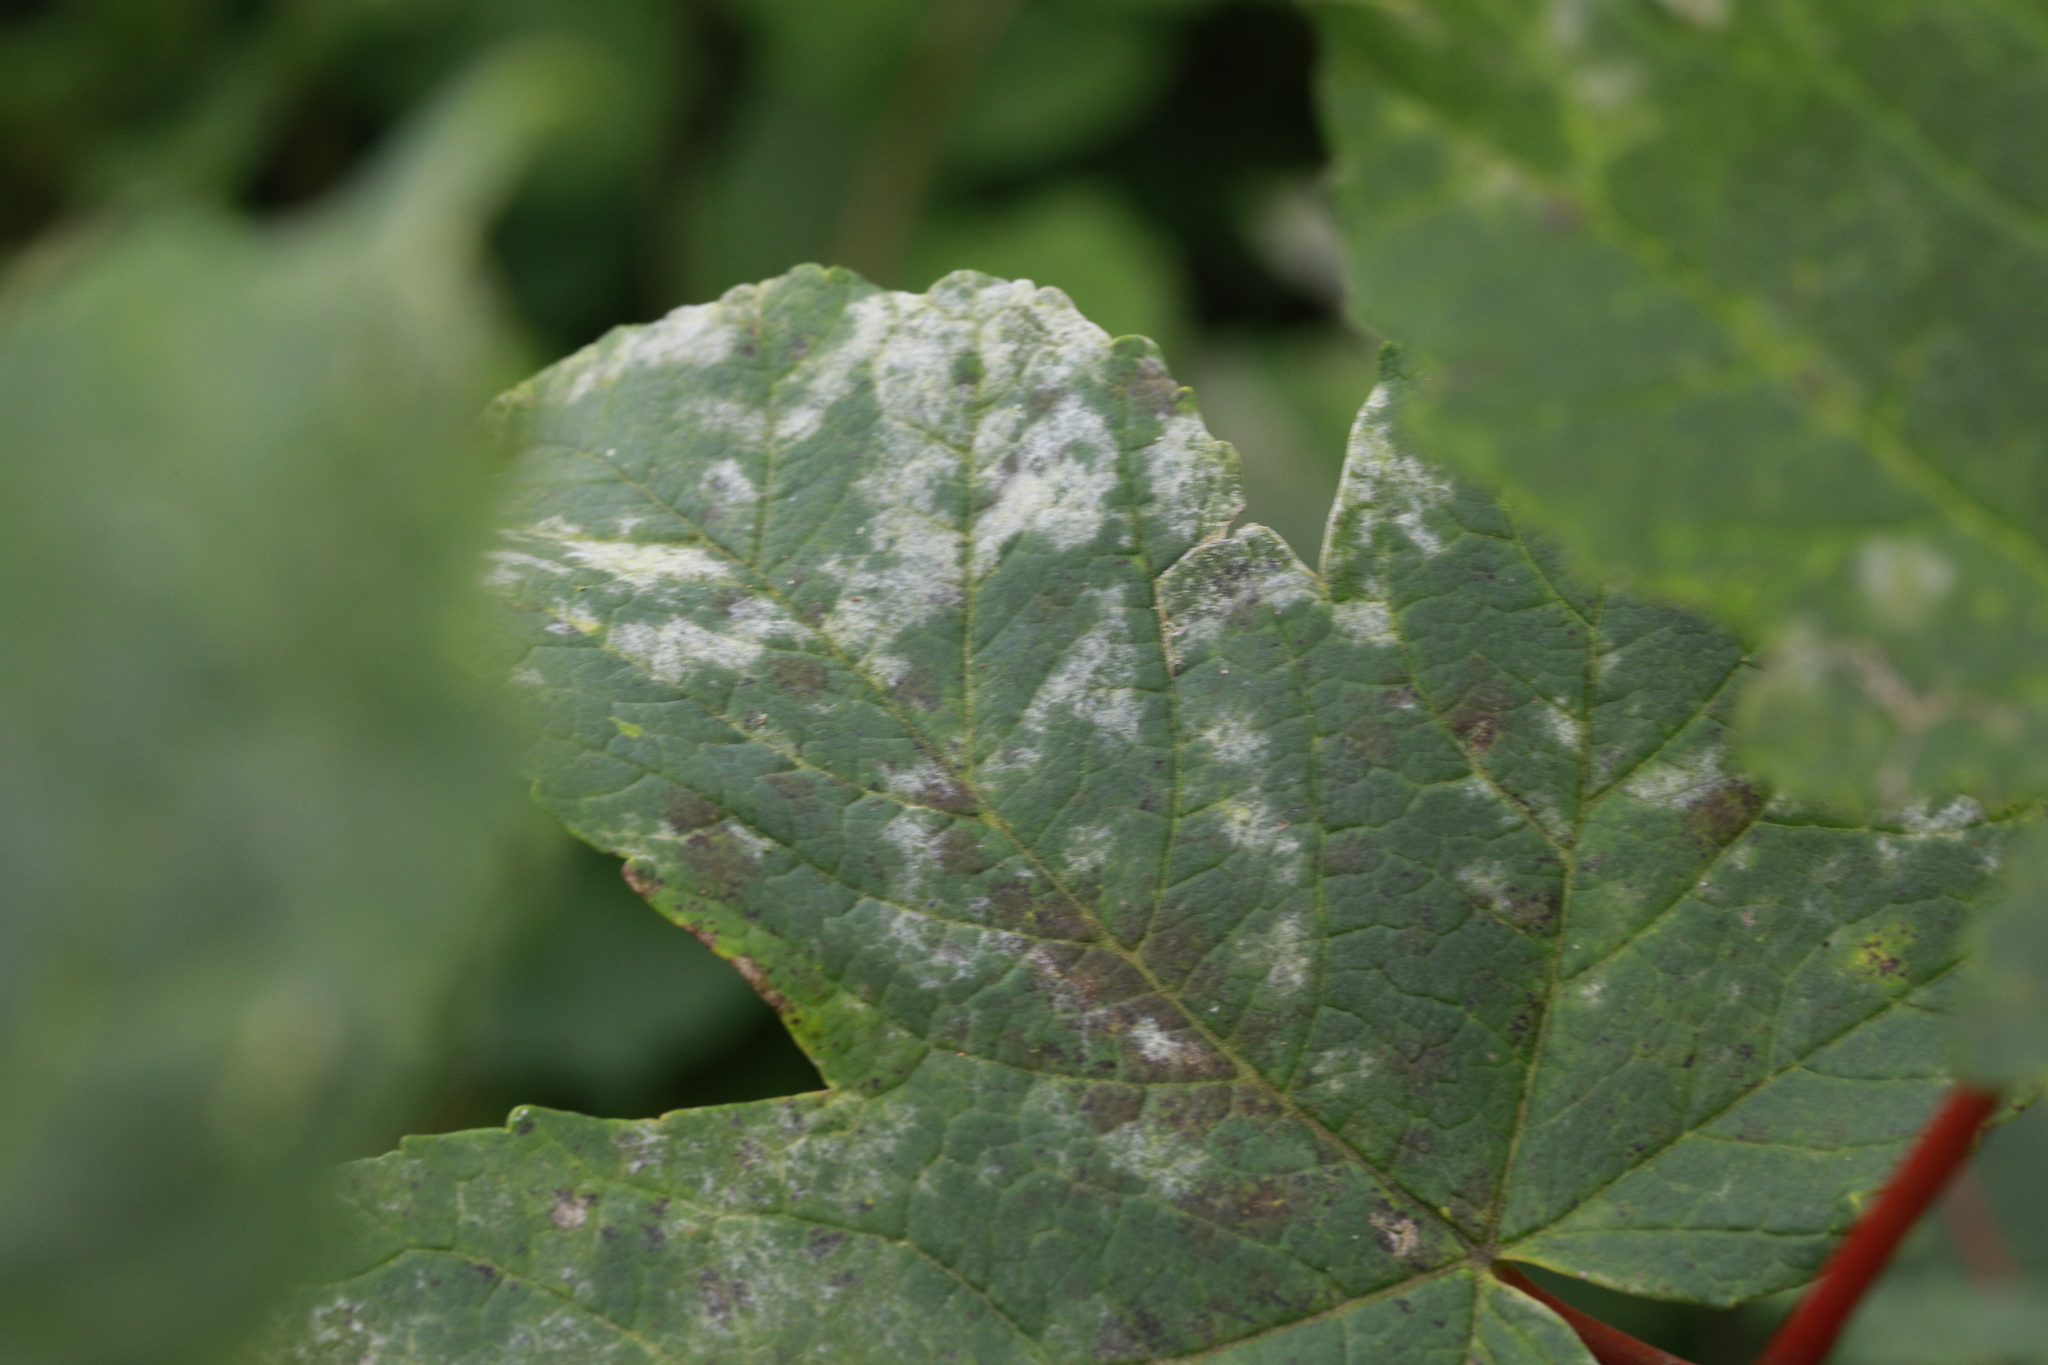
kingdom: Fungi
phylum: Ascomycota
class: Leotiomycetes
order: Helotiales
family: Erysiphaceae
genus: Sawadaea
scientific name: Sawadaea bicornis
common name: Maple mildew
